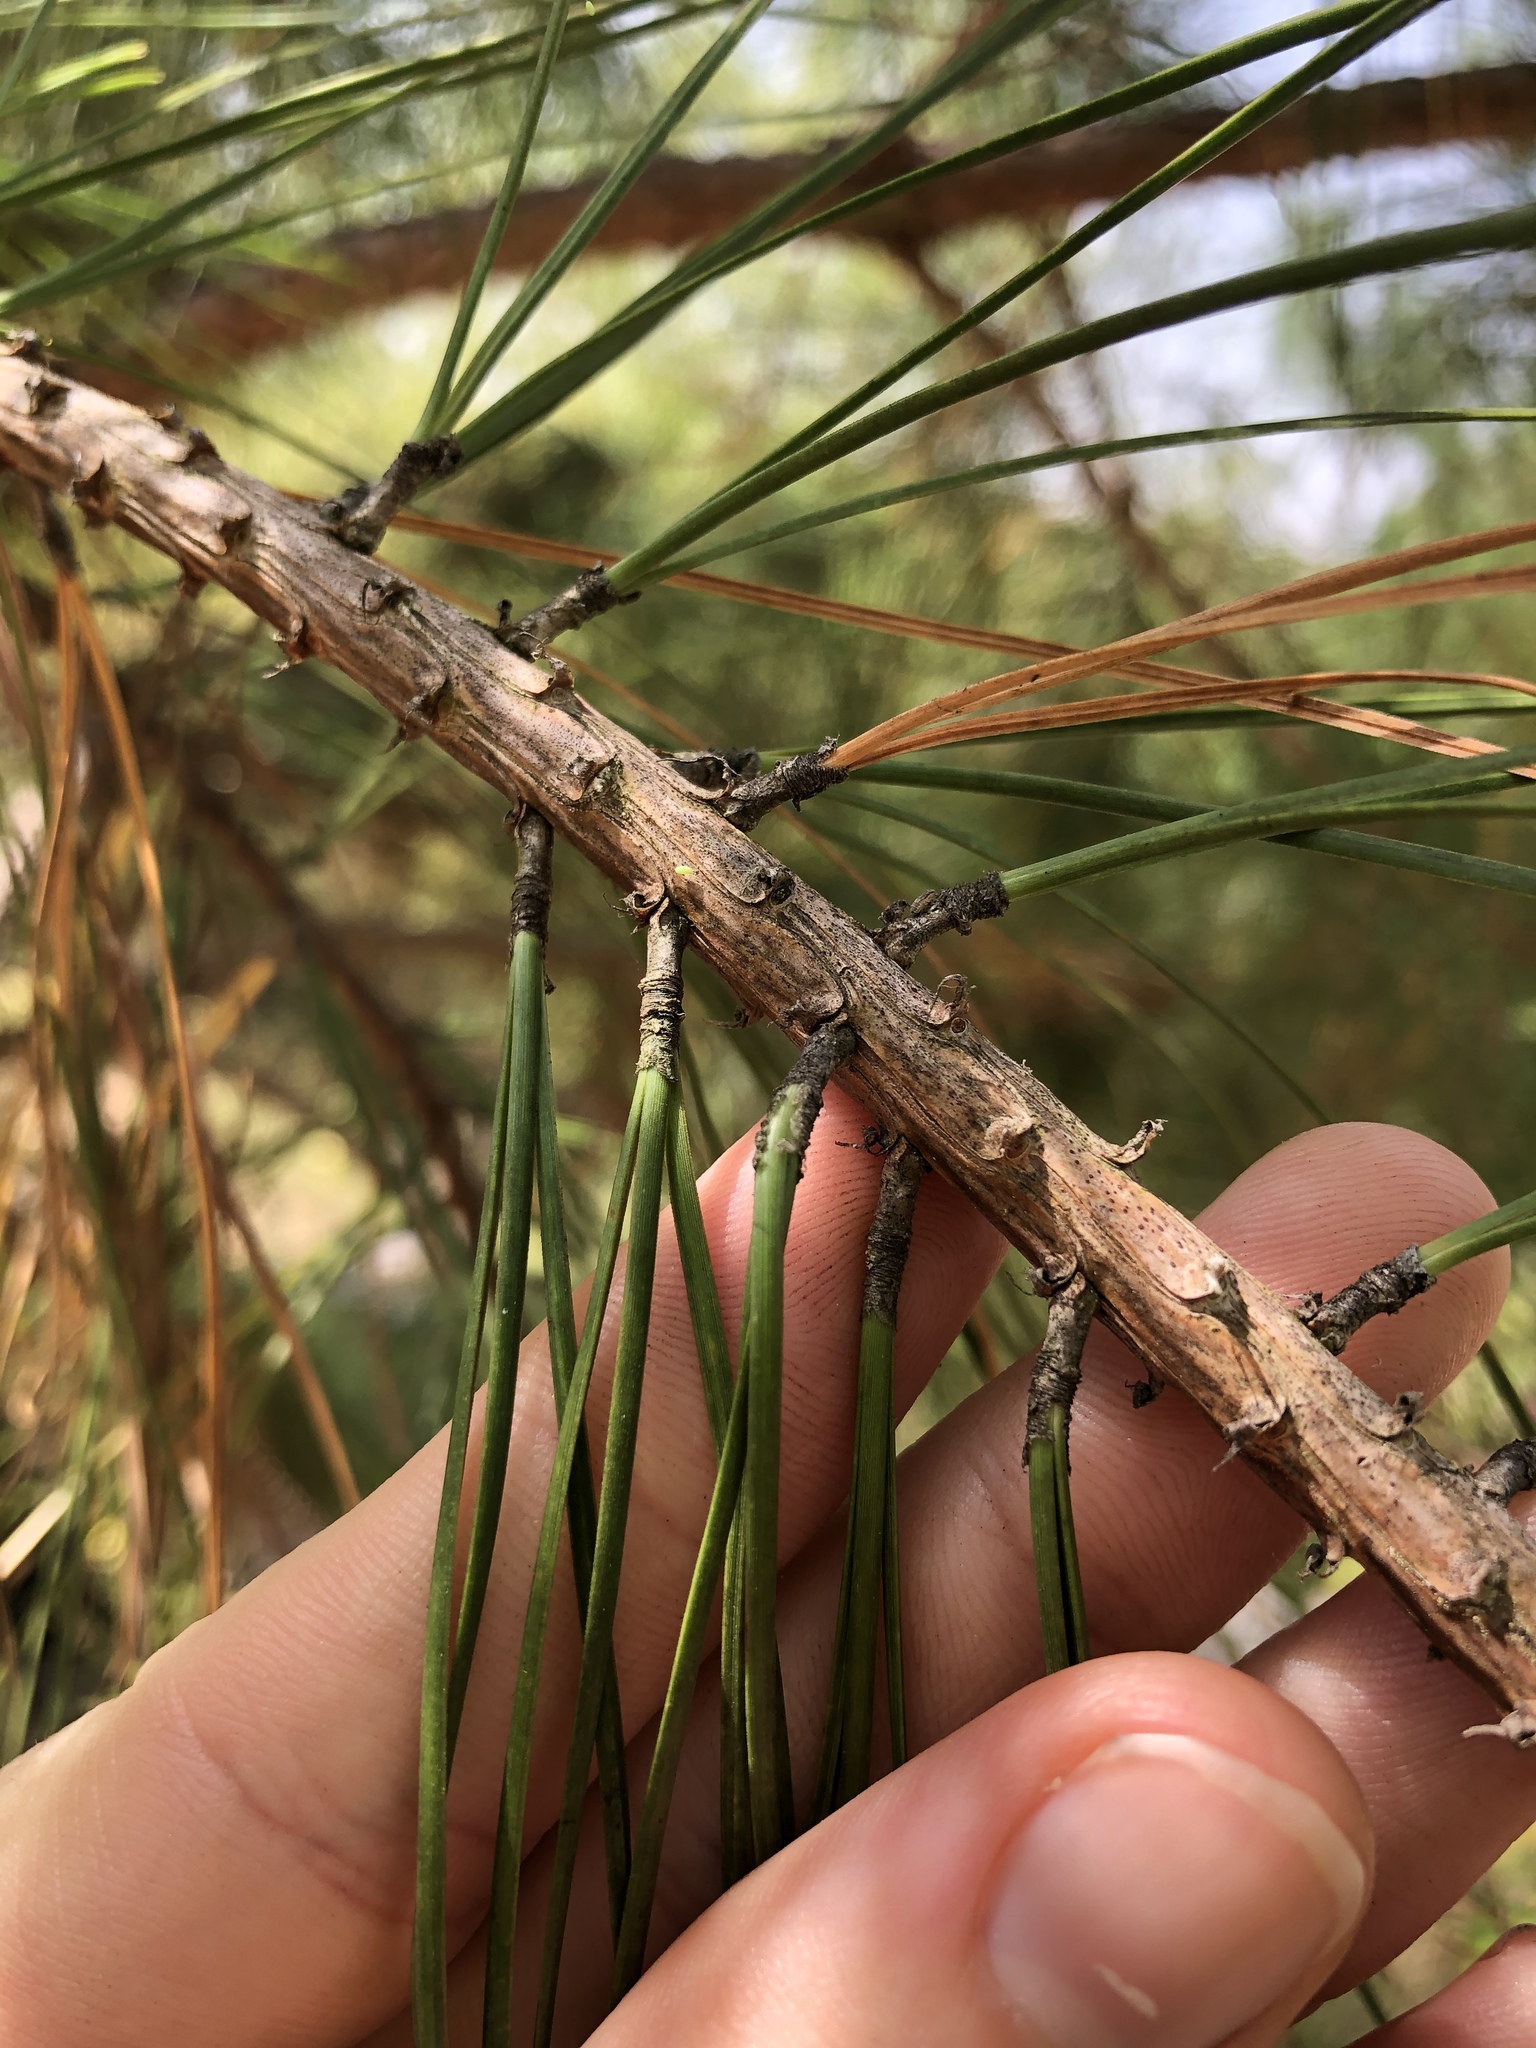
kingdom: Plantae
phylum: Tracheophyta
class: Pinopsida
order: Pinales
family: Pinaceae
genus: Pinus
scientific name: Pinus taeda
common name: Loblolly pine
